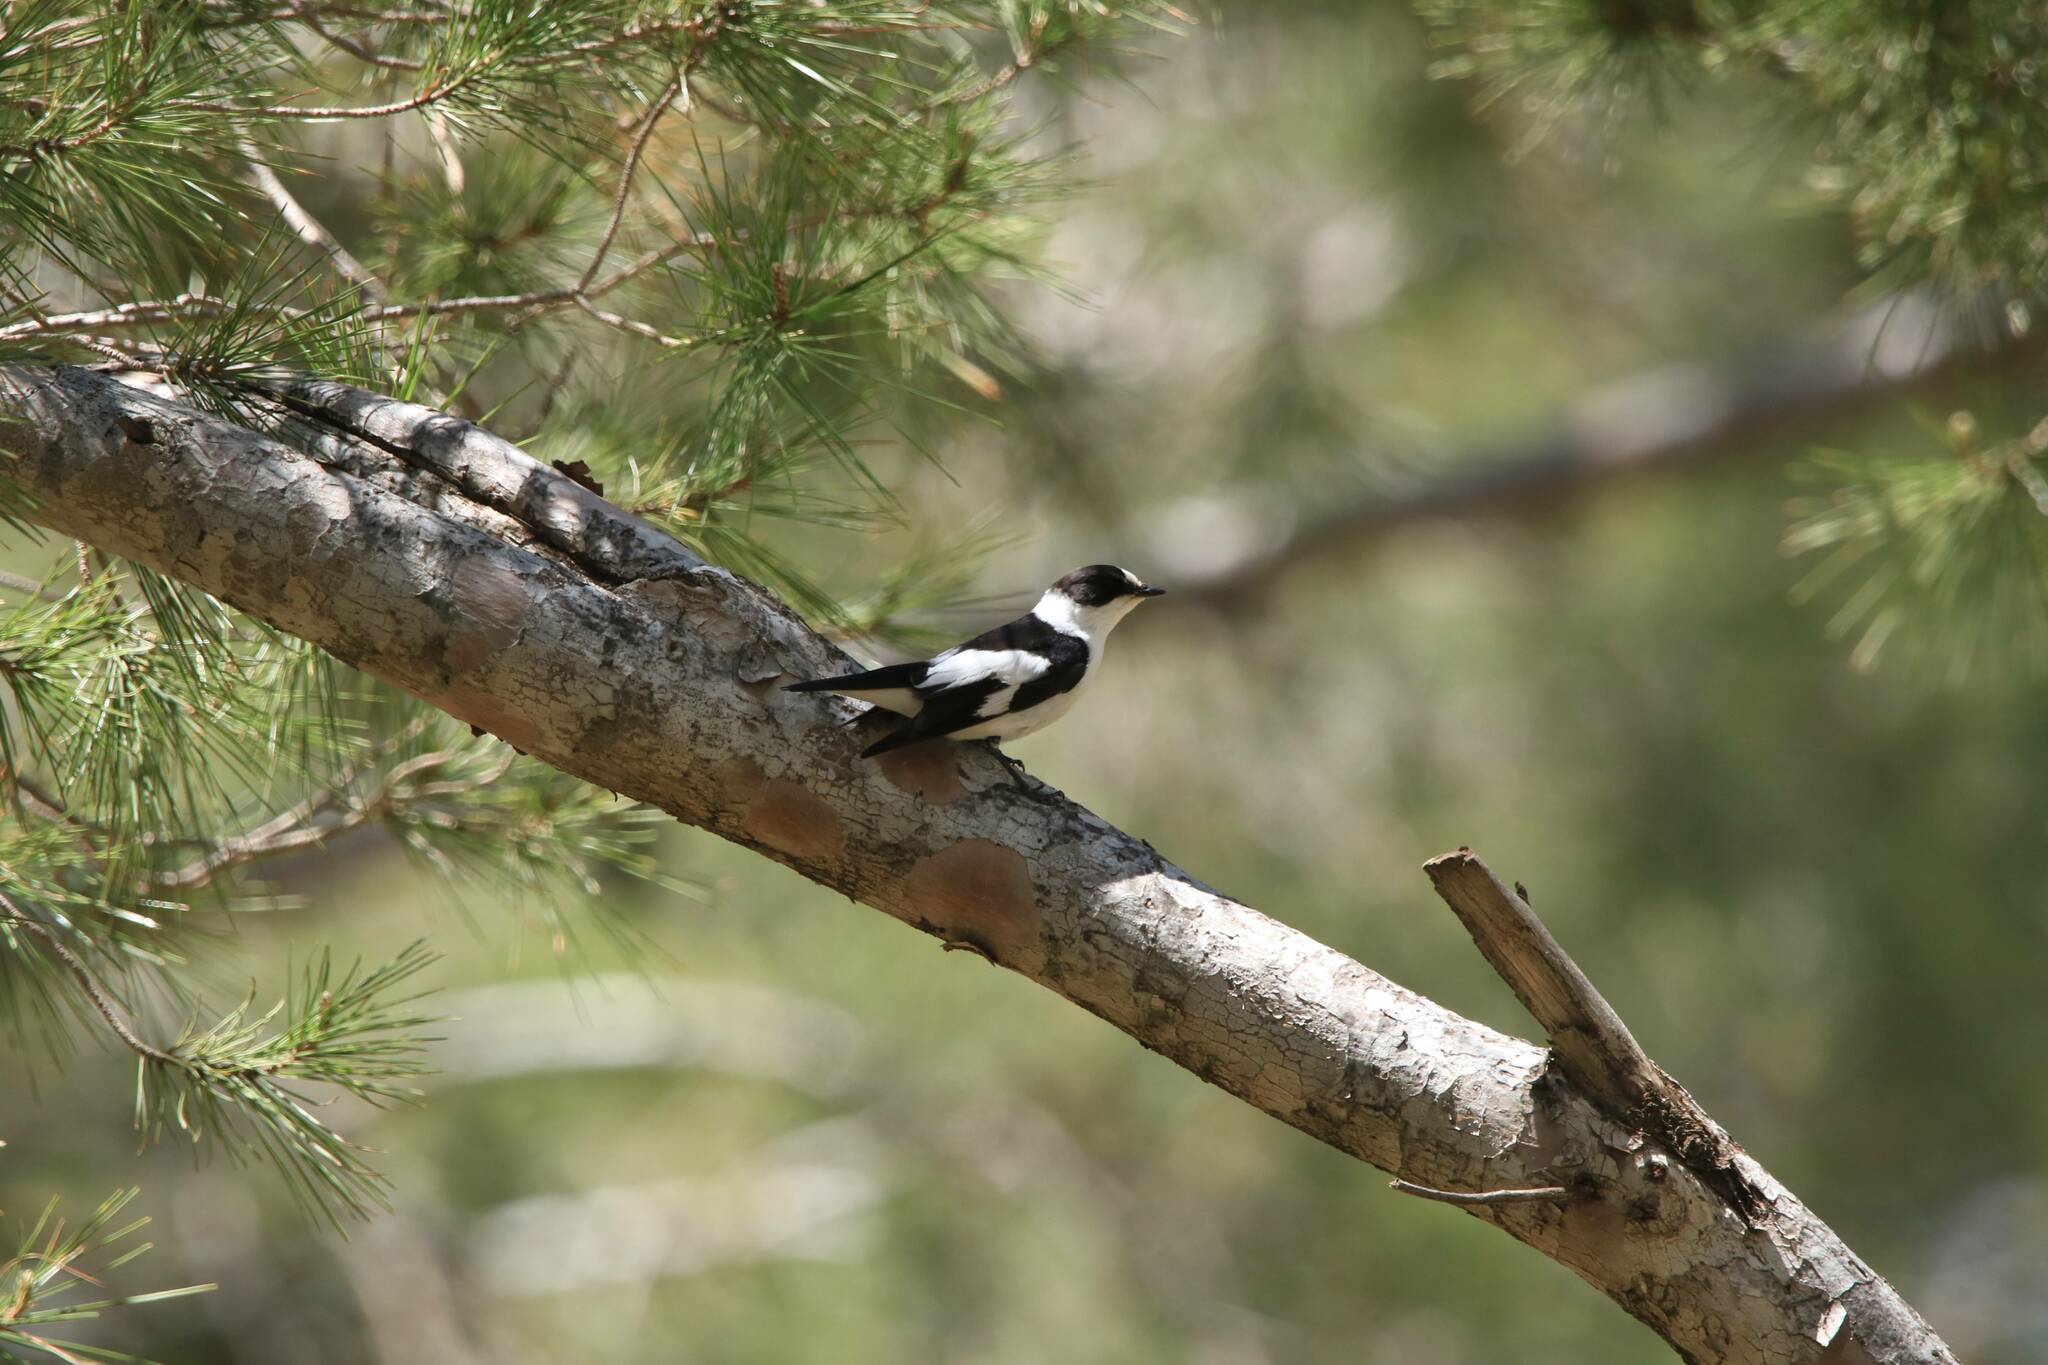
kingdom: Animalia
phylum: Chordata
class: Aves
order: Passeriformes
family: Muscicapidae
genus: Ficedula
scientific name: Ficedula albicollis
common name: Collared flycatcher
